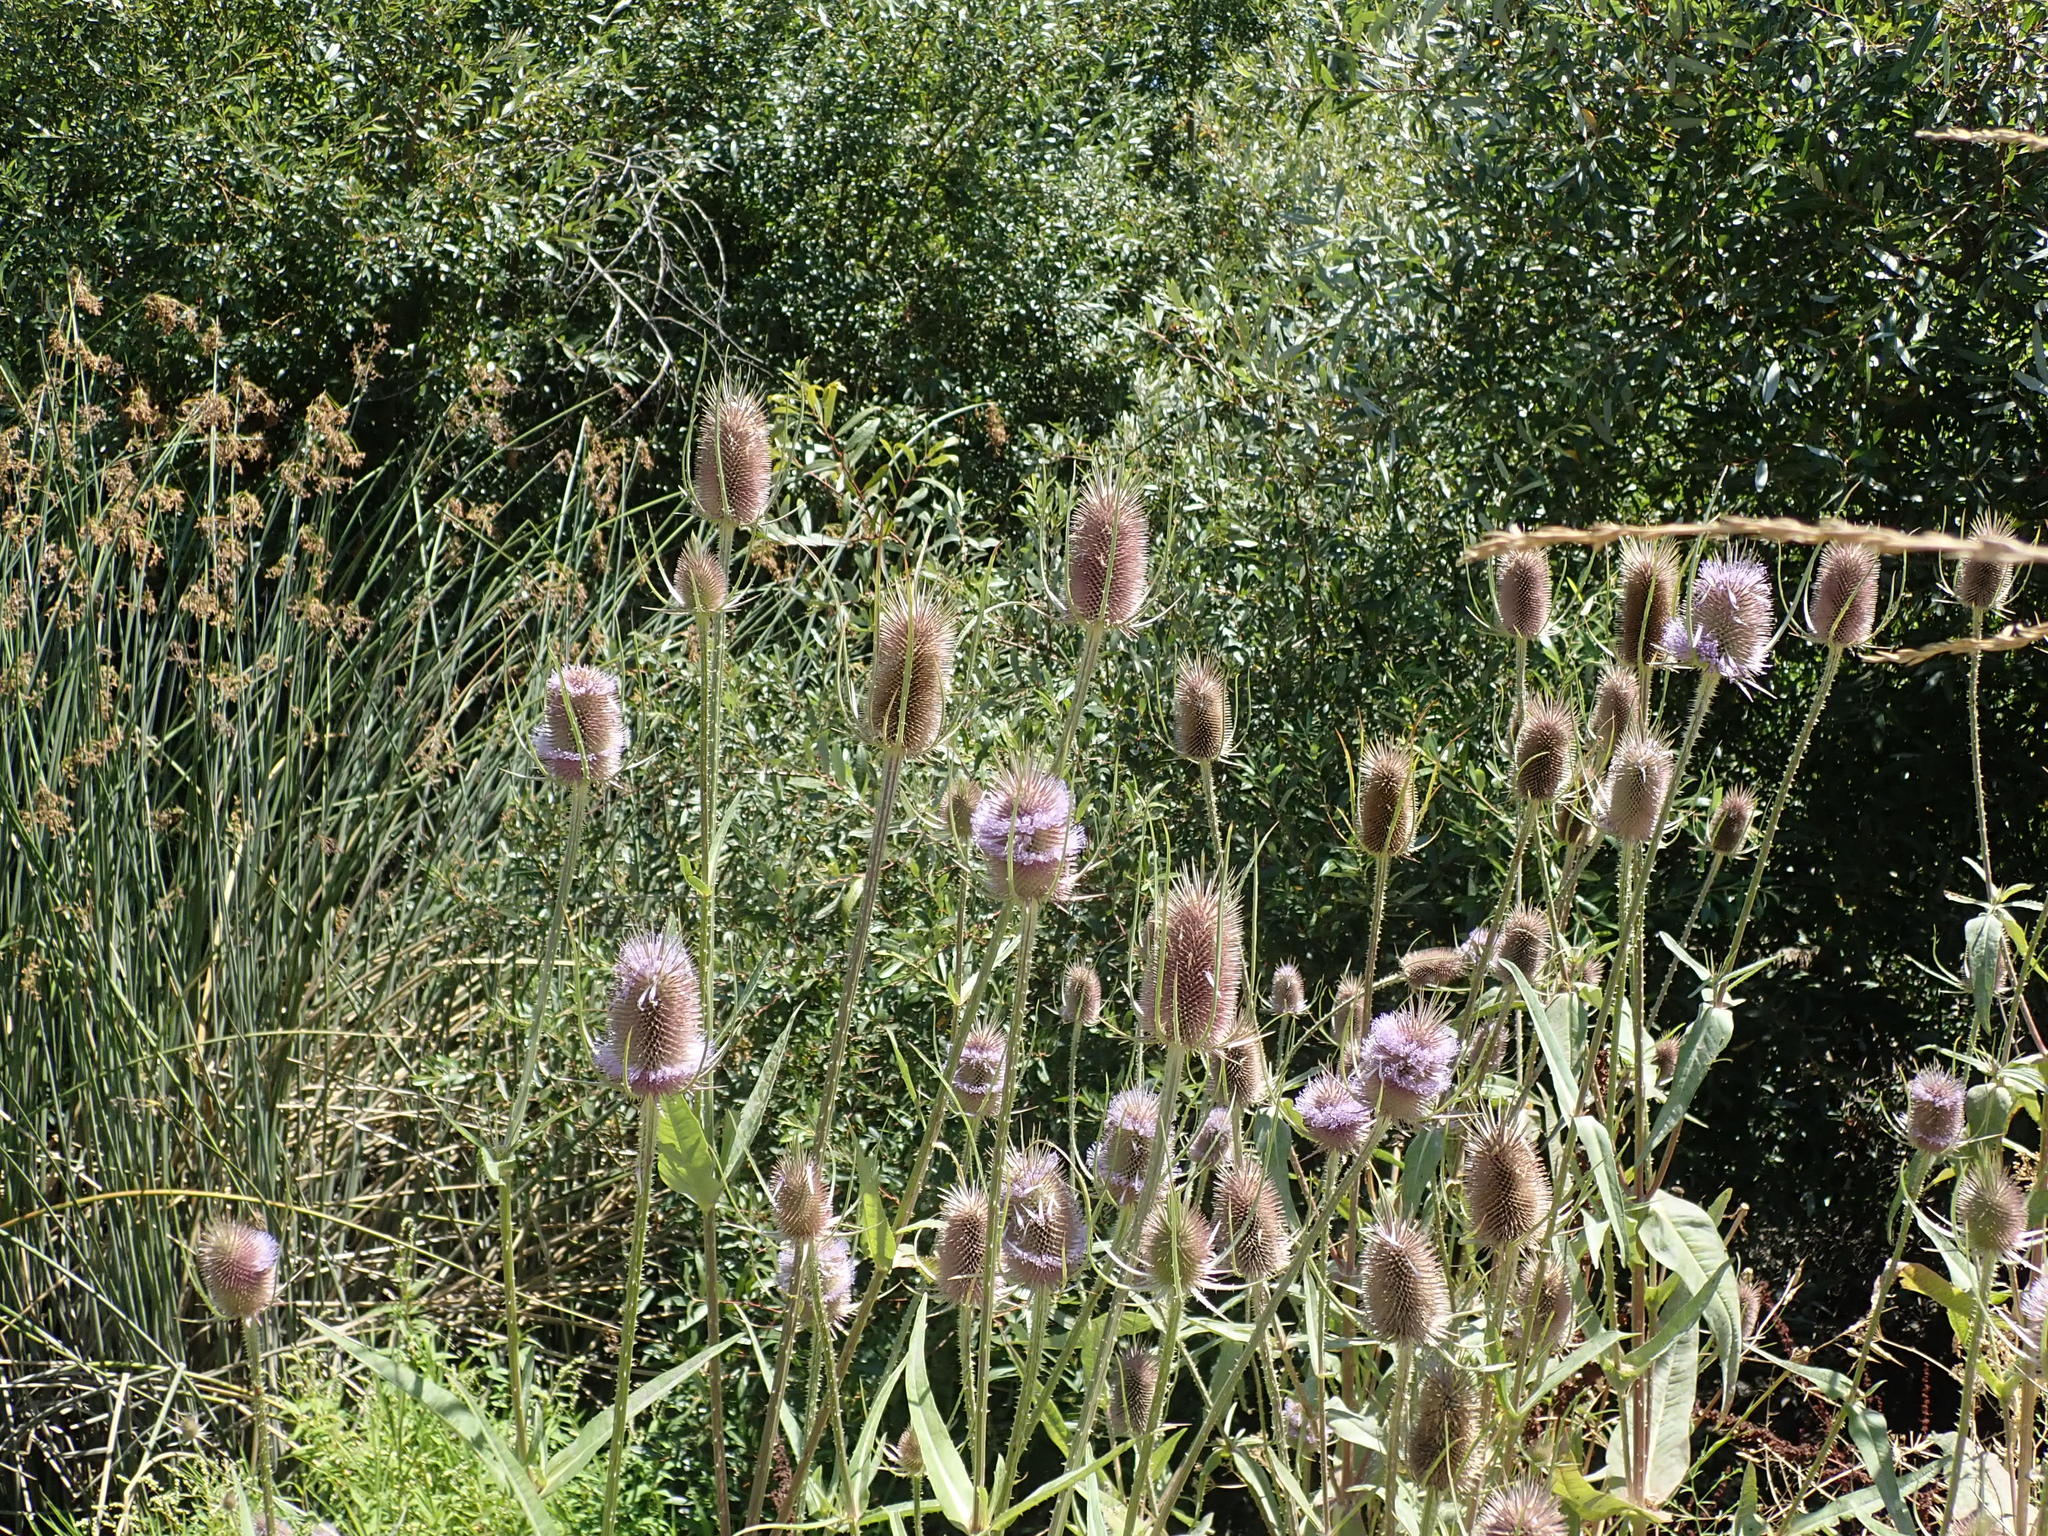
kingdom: Plantae
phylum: Tracheophyta
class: Magnoliopsida
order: Dipsacales
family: Caprifoliaceae
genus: Dipsacus
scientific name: Dipsacus fullonum
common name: Teasel
